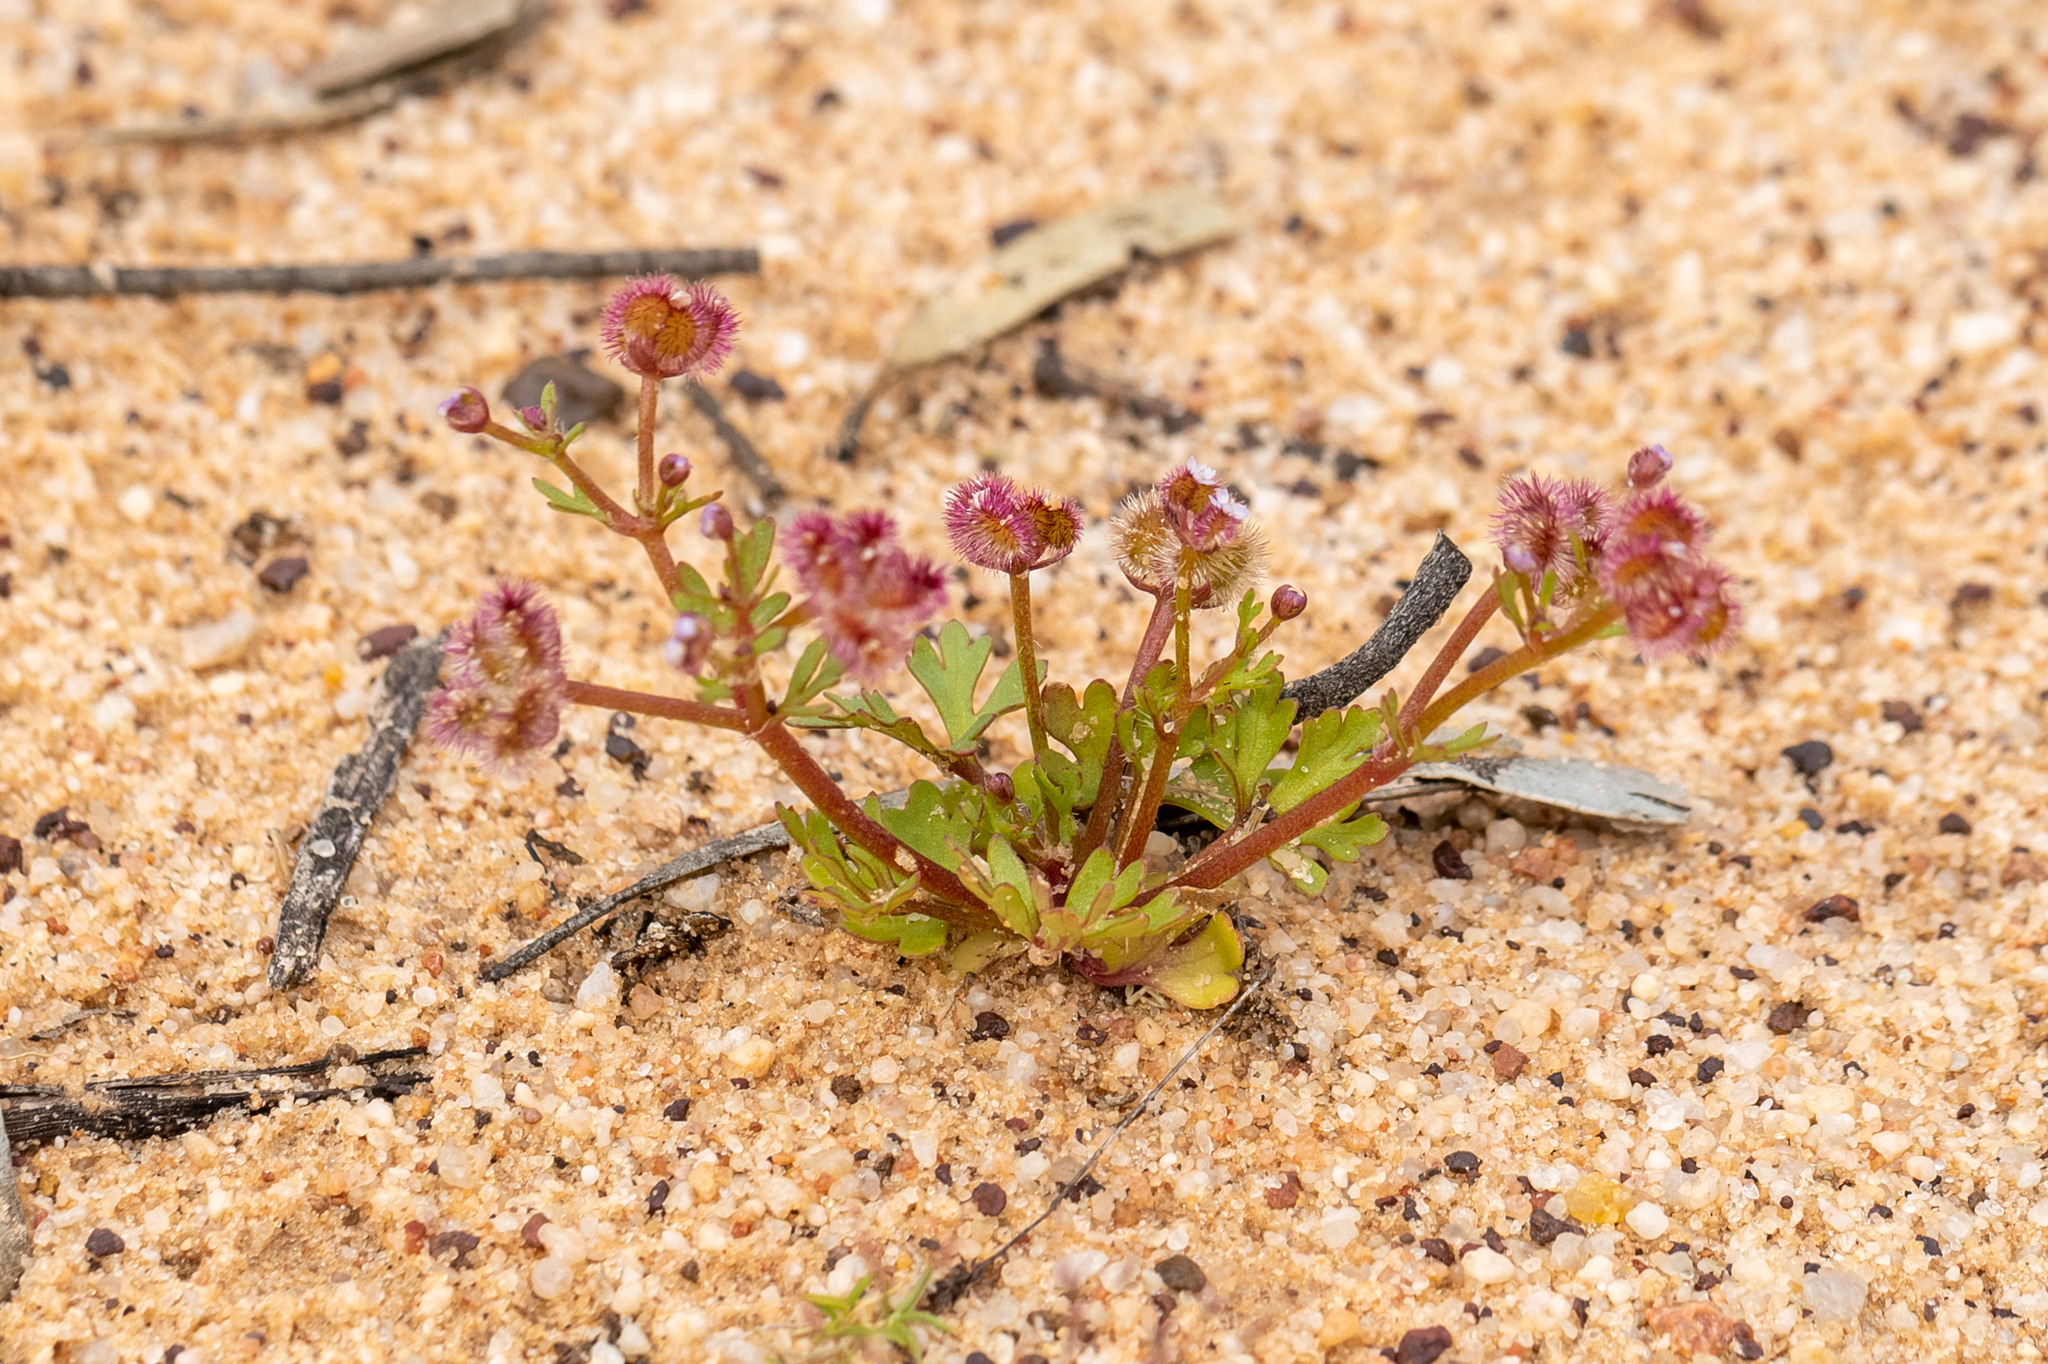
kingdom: Plantae
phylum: Tracheophyta
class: Magnoliopsida
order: Apiales
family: Araliaceae
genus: Trachymene
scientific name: Trachymene cyanopetala
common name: Purple trachymene
